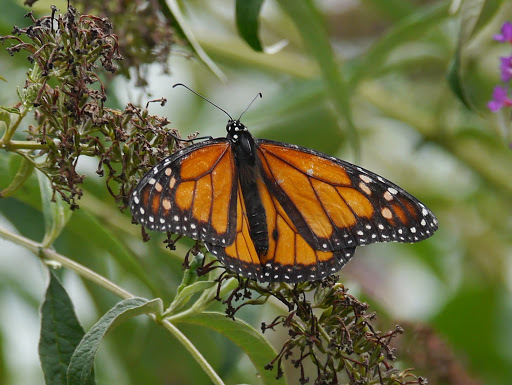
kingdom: Animalia
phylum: Arthropoda
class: Insecta
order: Lepidoptera
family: Nymphalidae
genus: Danaus
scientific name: Danaus plexippus
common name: Monarch
